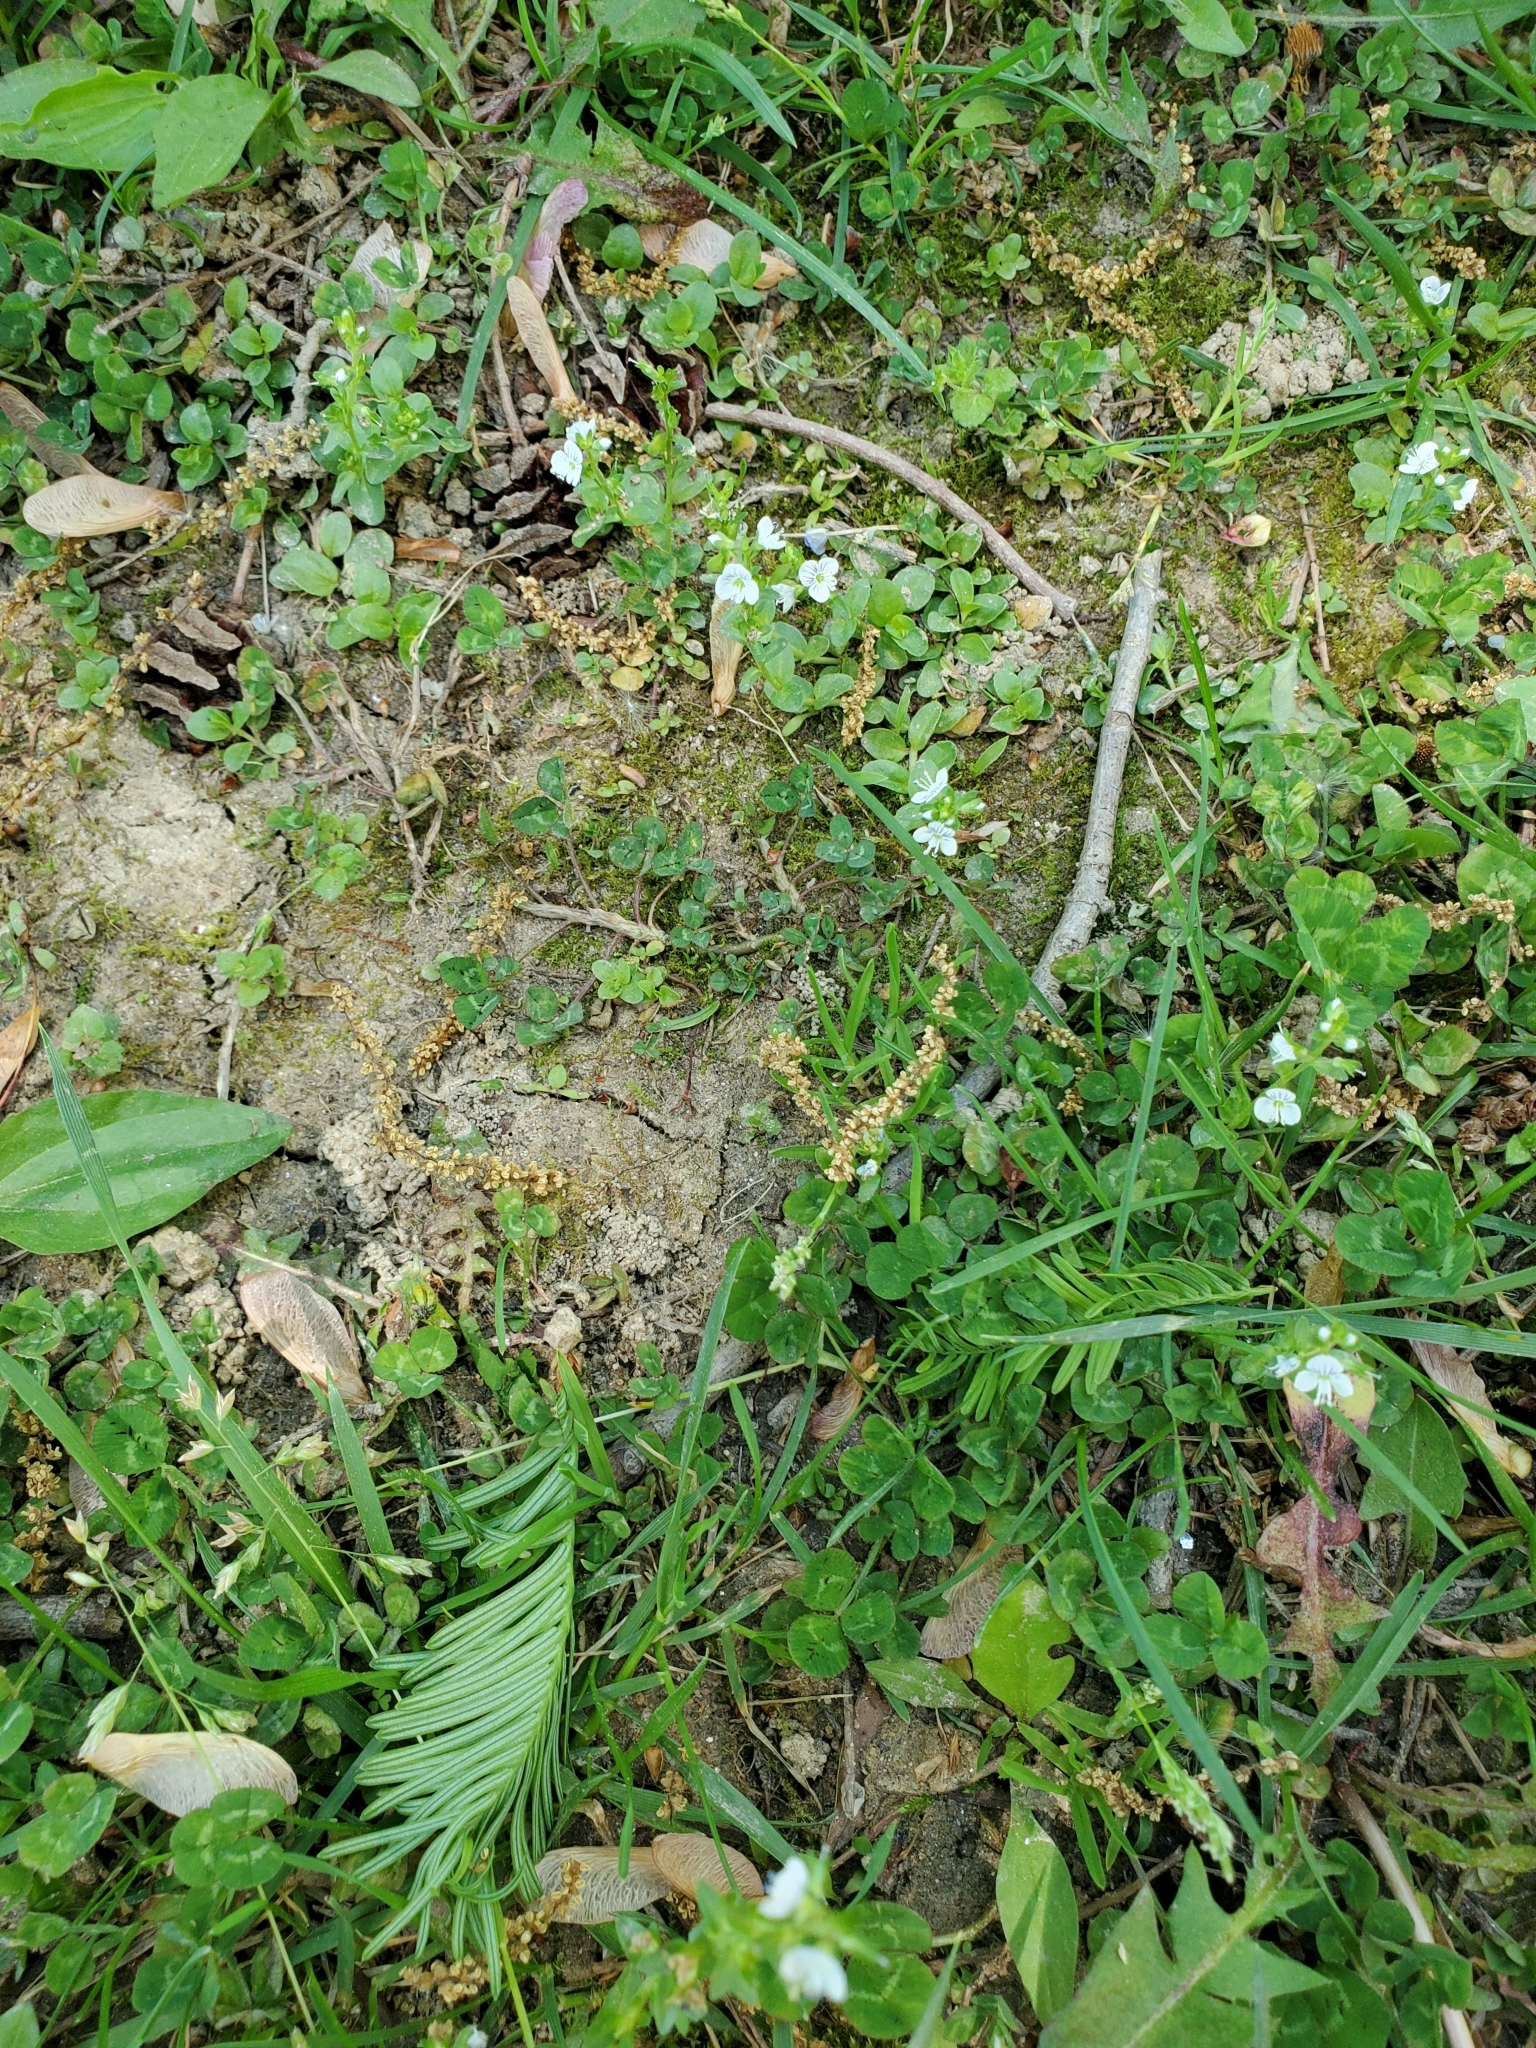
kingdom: Plantae
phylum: Tracheophyta
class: Magnoliopsida
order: Lamiales
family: Plantaginaceae
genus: Veronica
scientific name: Veronica serpyllifolia
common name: Thyme-leaved speedwell
